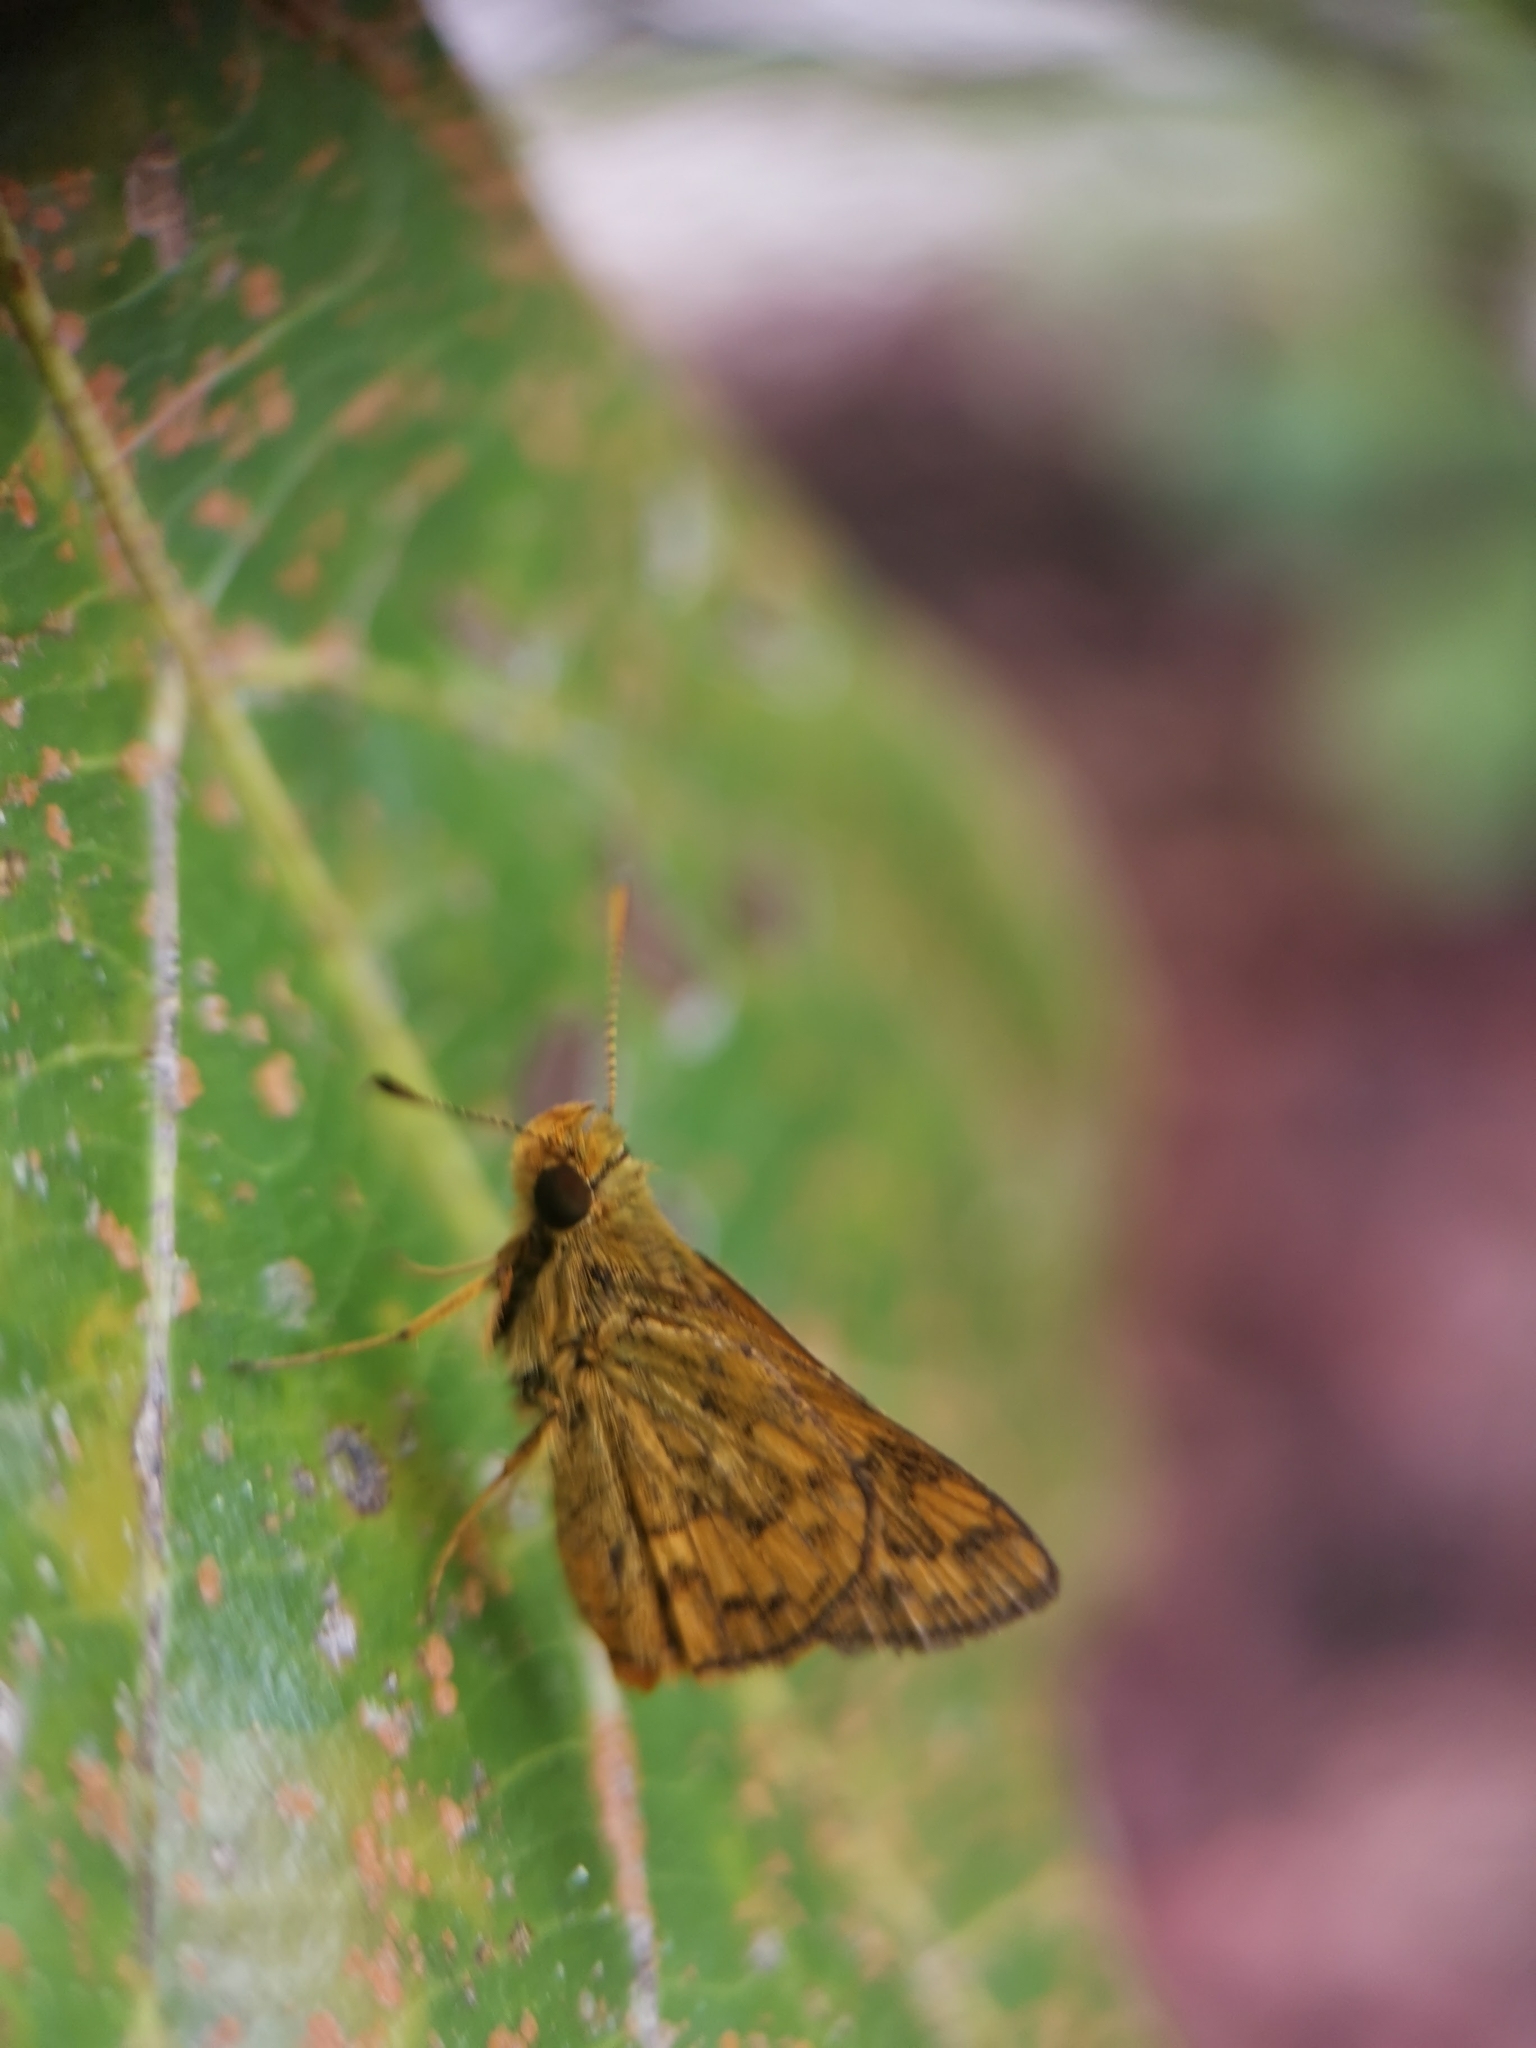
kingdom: Animalia
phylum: Arthropoda
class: Insecta
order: Lepidoptera
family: Hesperiidae
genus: Potanthus
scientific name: Potanthus omaha
